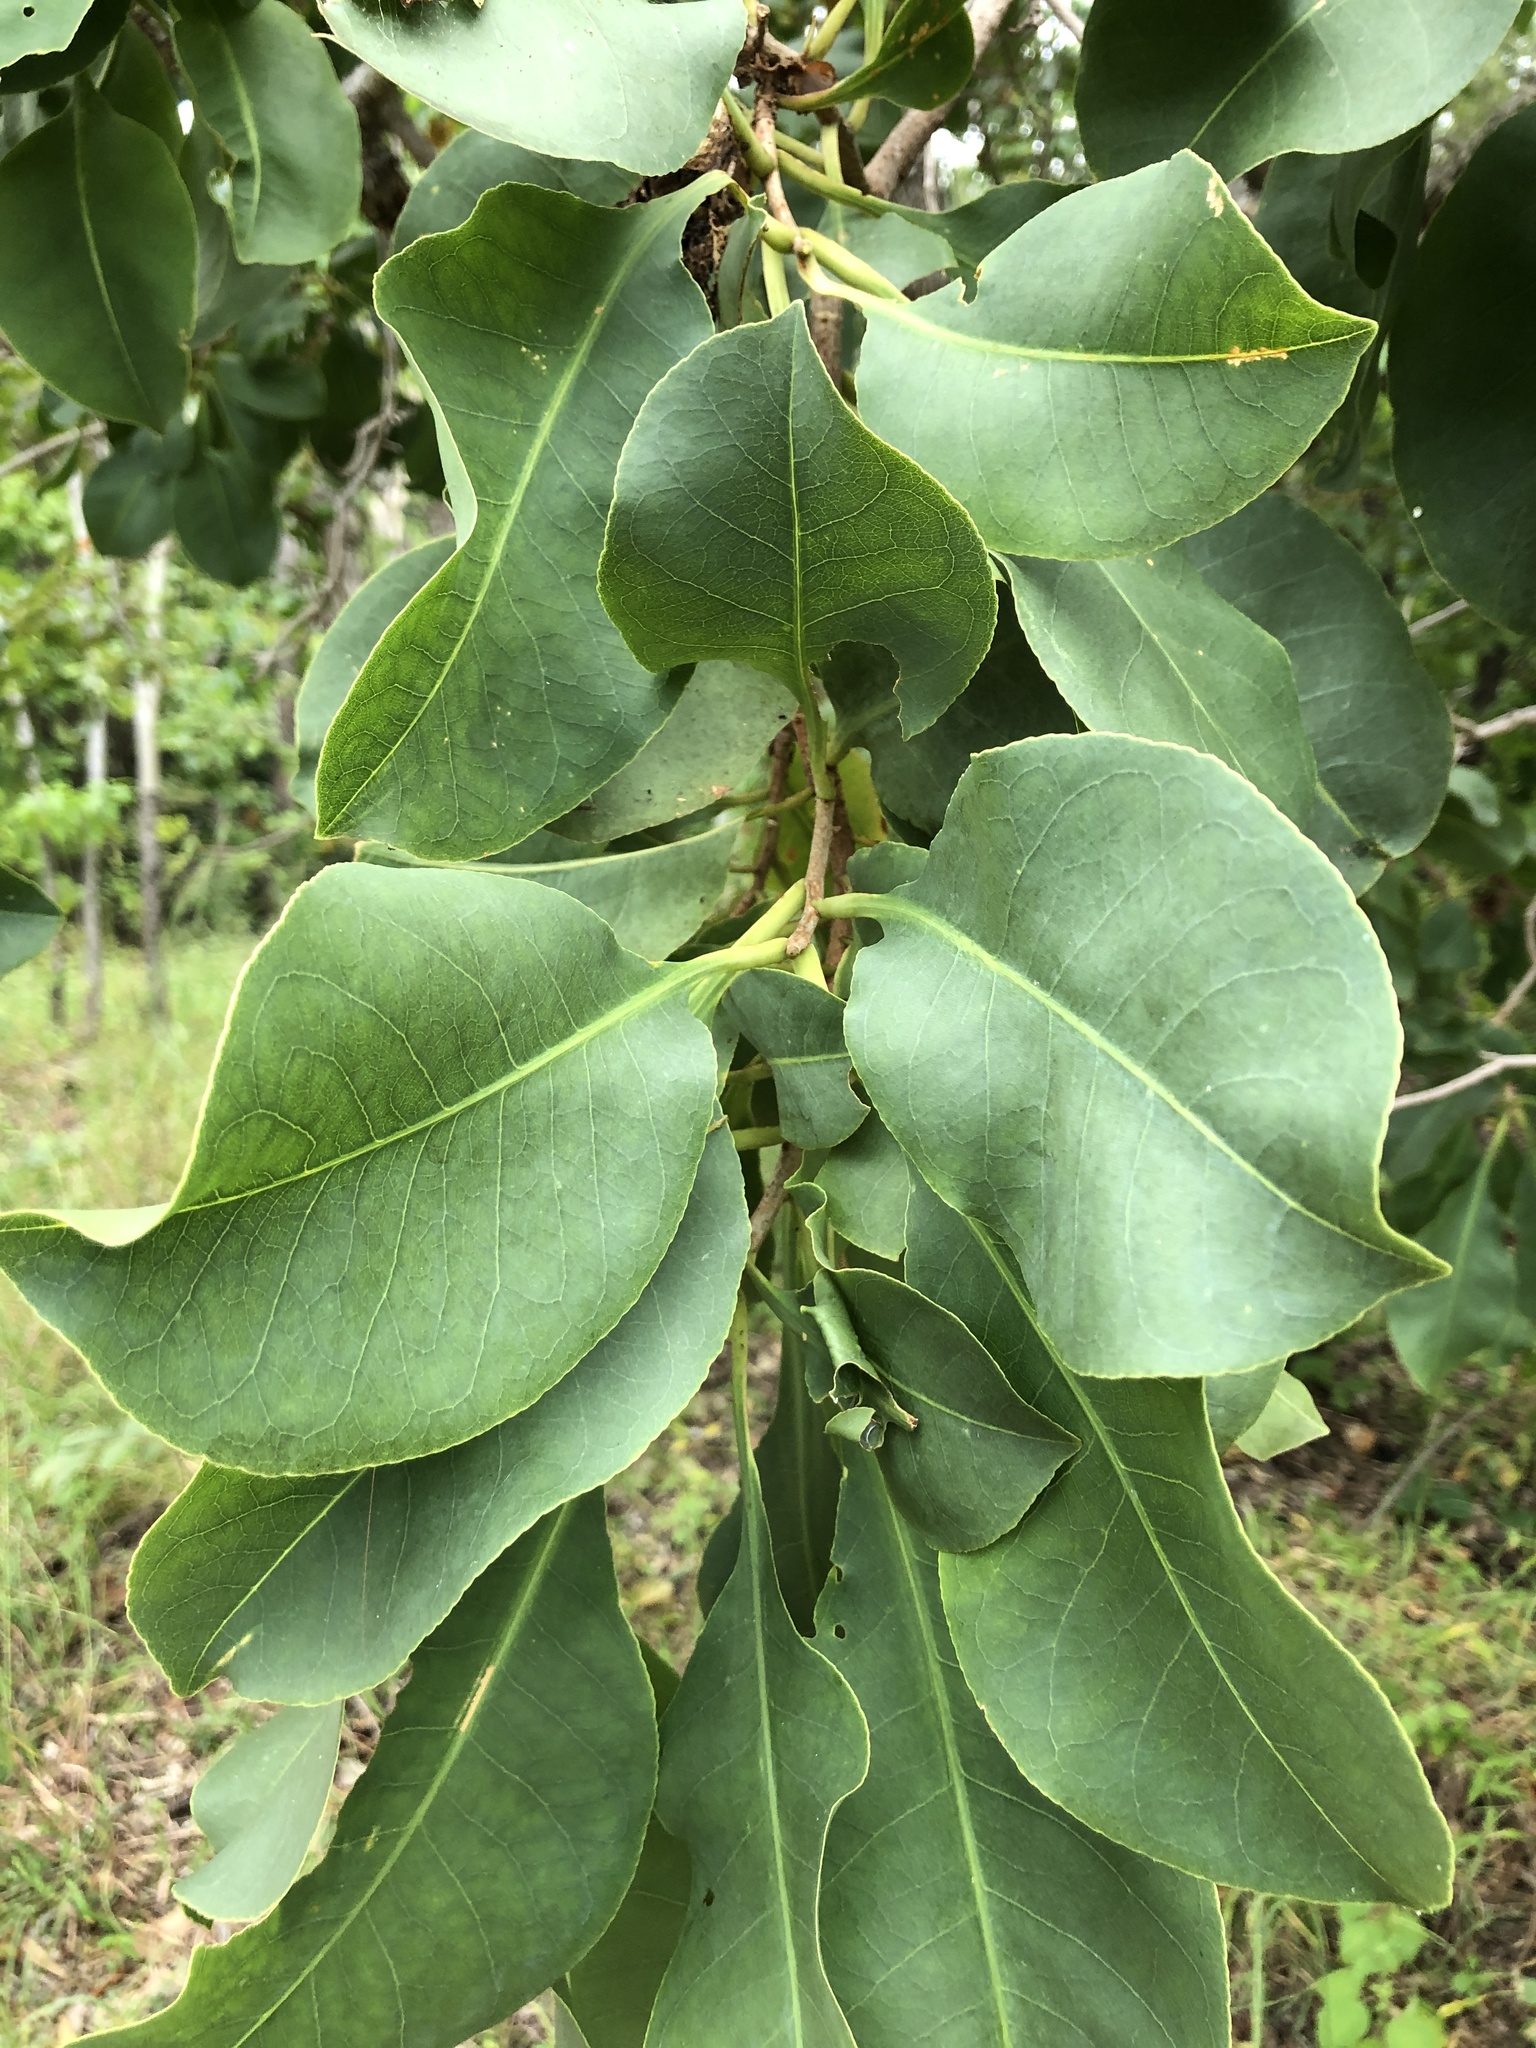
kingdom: Plantae
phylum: Tracheophyta
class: Magnoliopsida
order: Ericales
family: Lecythidaceae
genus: Planchonia
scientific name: Planchonia careya
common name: Cockatoo-apple
